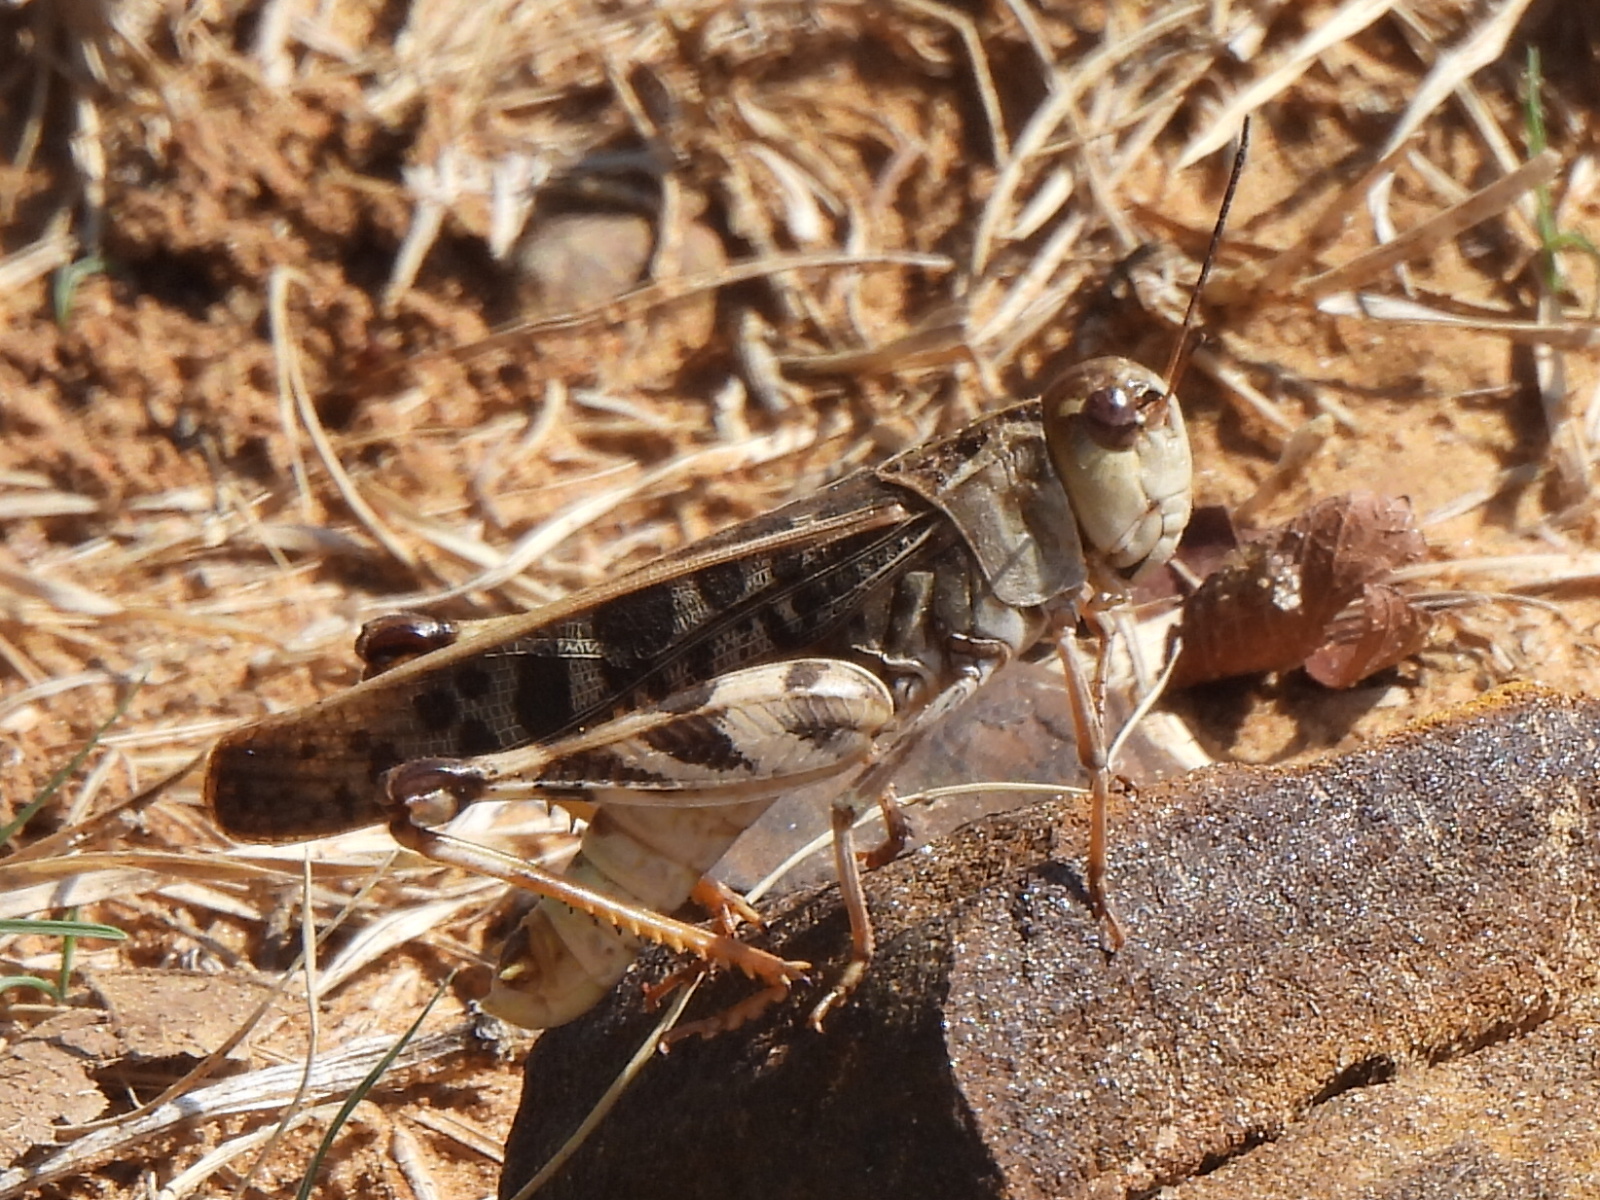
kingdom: Animalia
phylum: Arthropoda
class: Insecta
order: Orthoptera
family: Acrididae
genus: Hippiscus
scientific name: Hippiscus ocelote
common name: Wrinkled grasshopper
